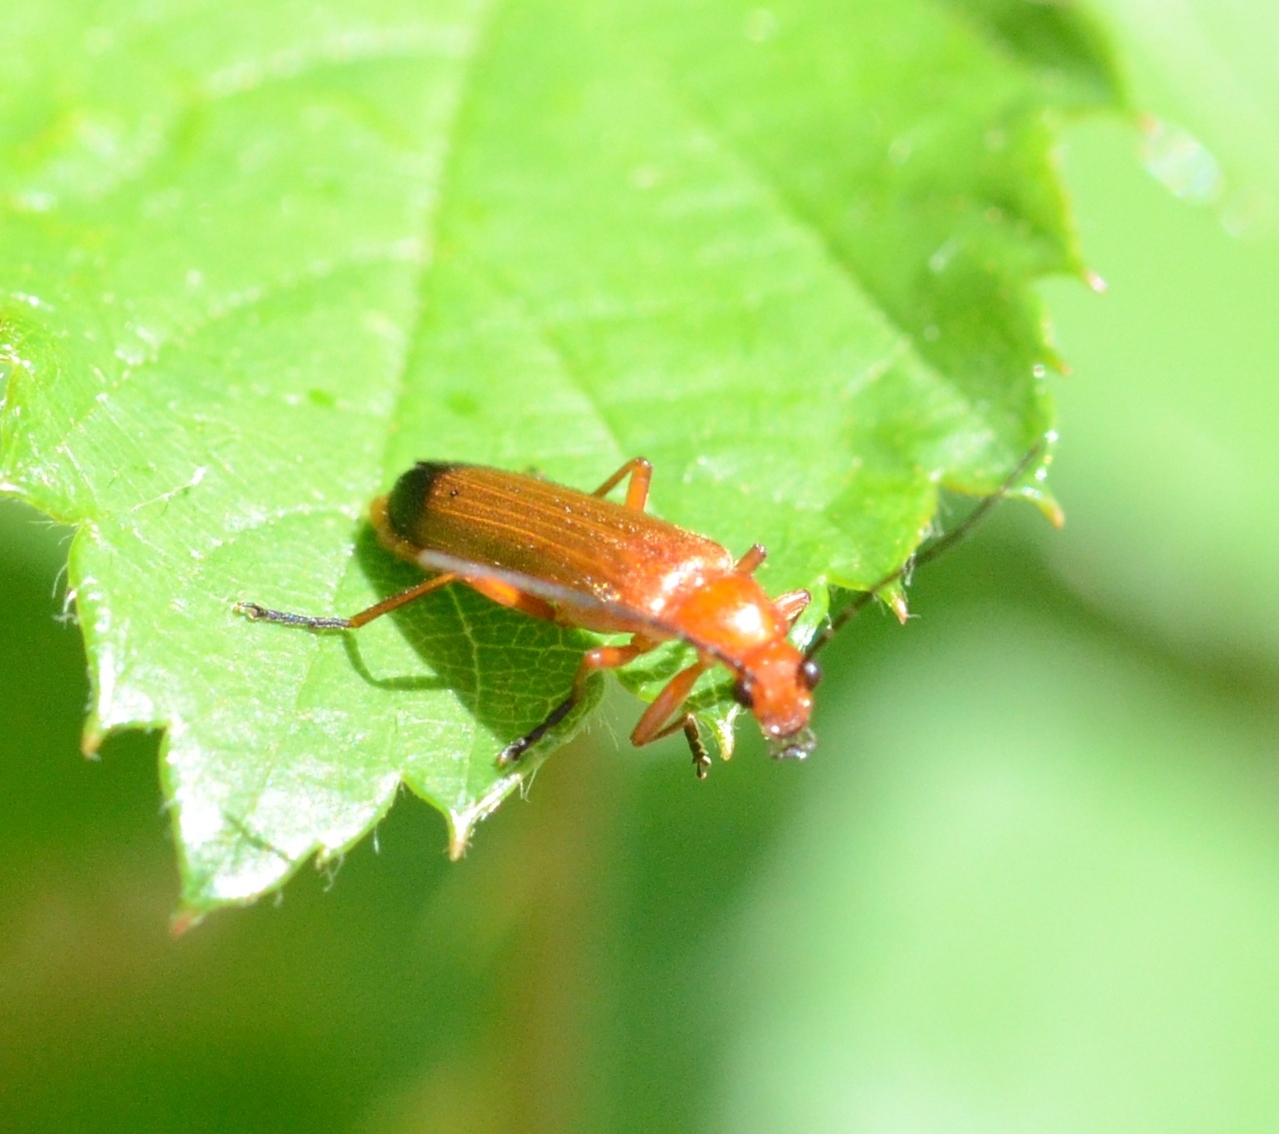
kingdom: Animalia
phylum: Arthropoda
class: Insecta
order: Coleoptera
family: Cantharidae
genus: Rhagonycha
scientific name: Rhagonycha fulva
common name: Common red soldier beetle
